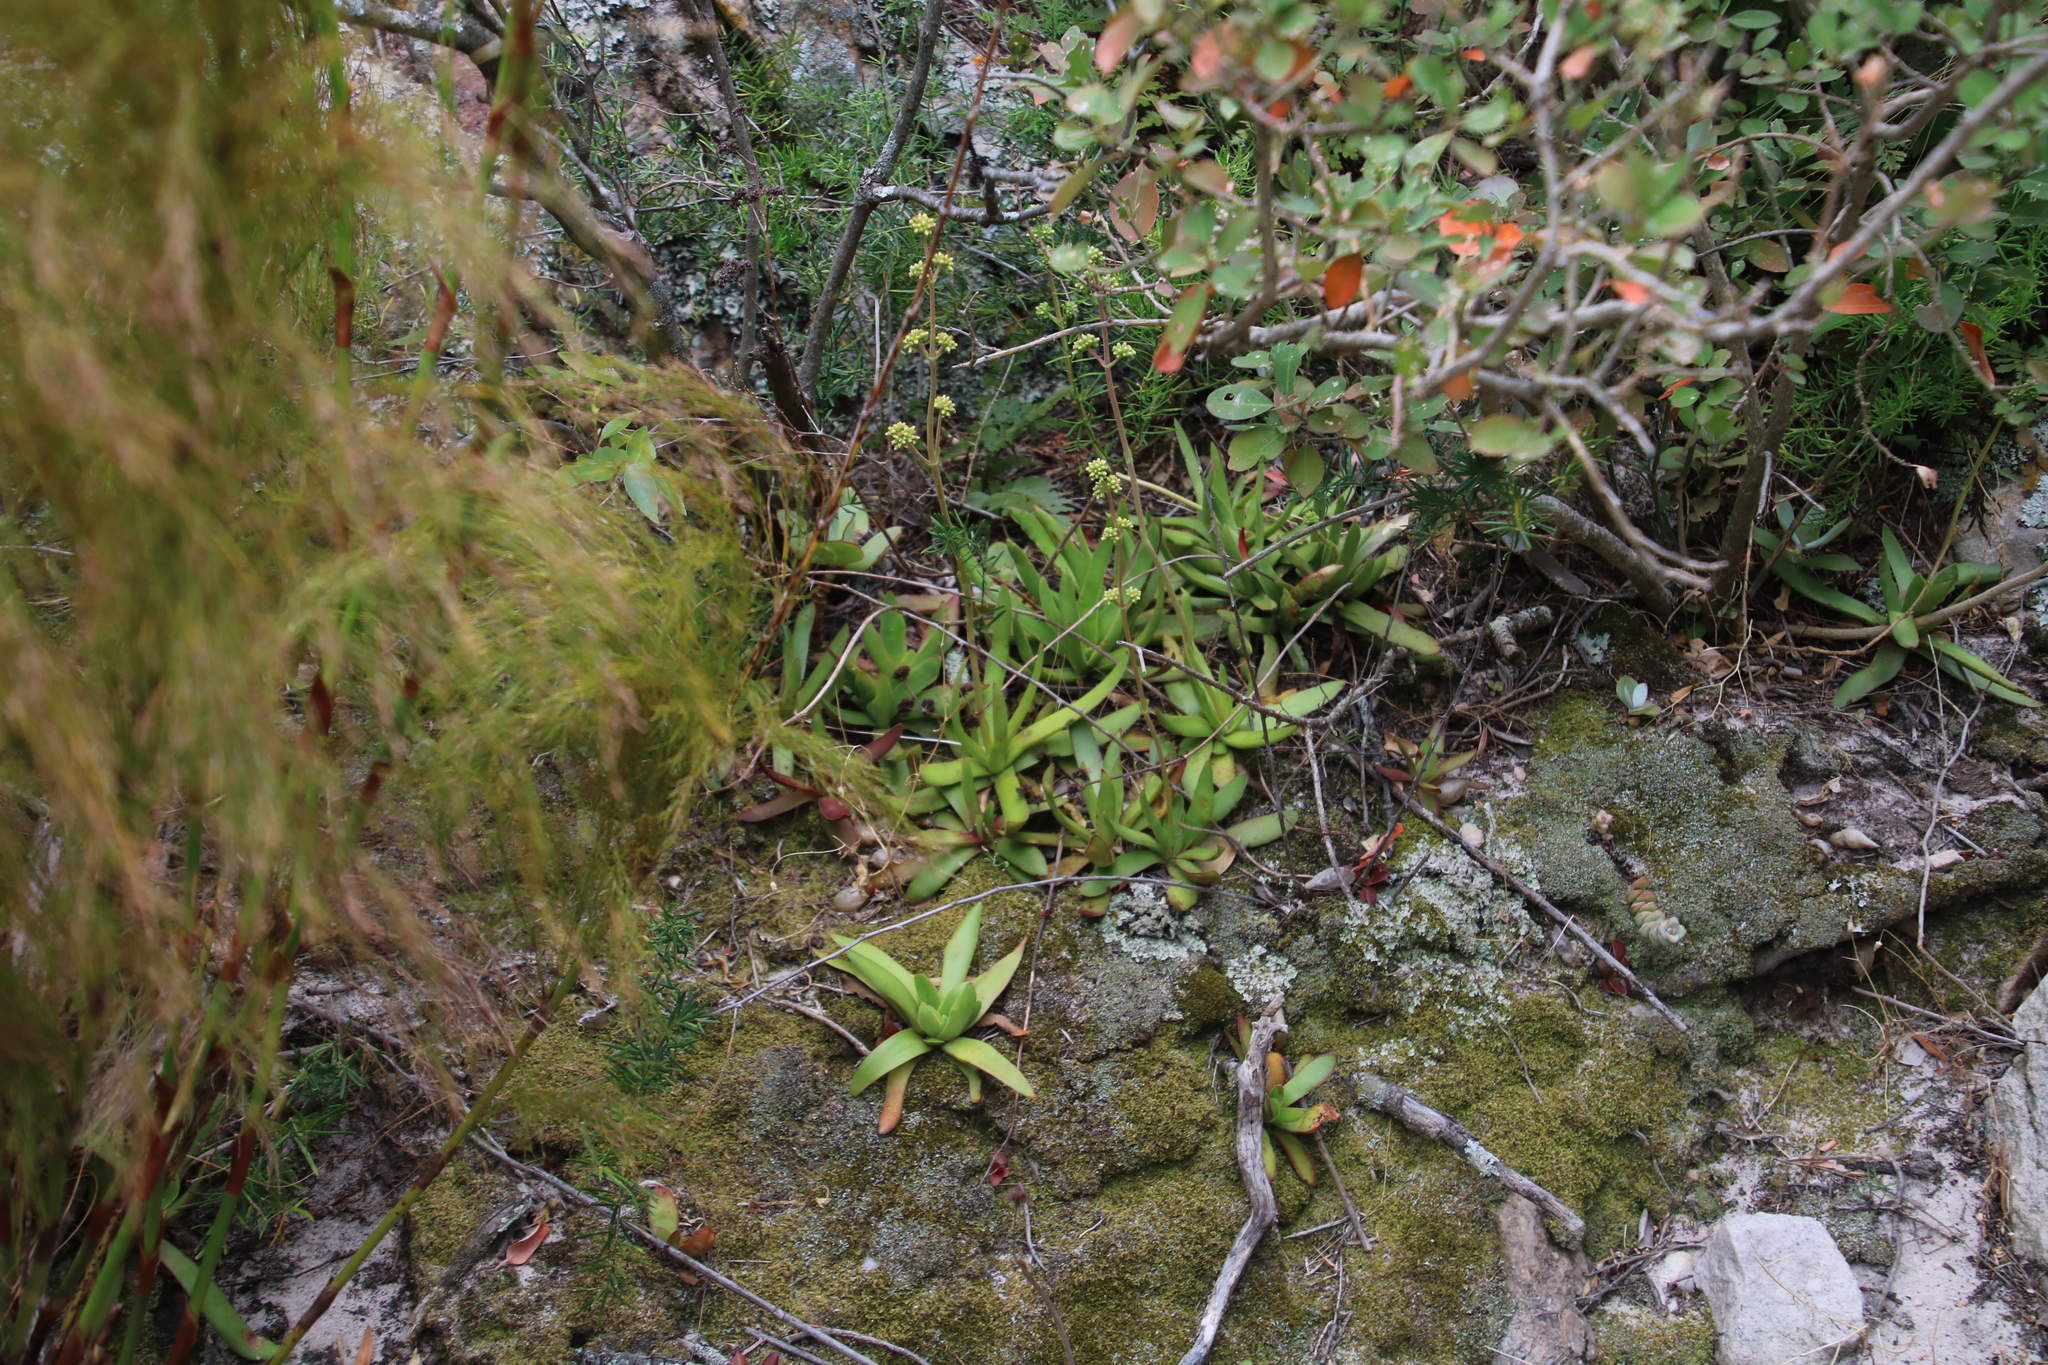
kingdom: Plantae
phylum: Tracheophyta
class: Magnoliopsida
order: Saxifragales
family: Crassulaceae
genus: Crassula
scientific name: Crassula nudicaulis
